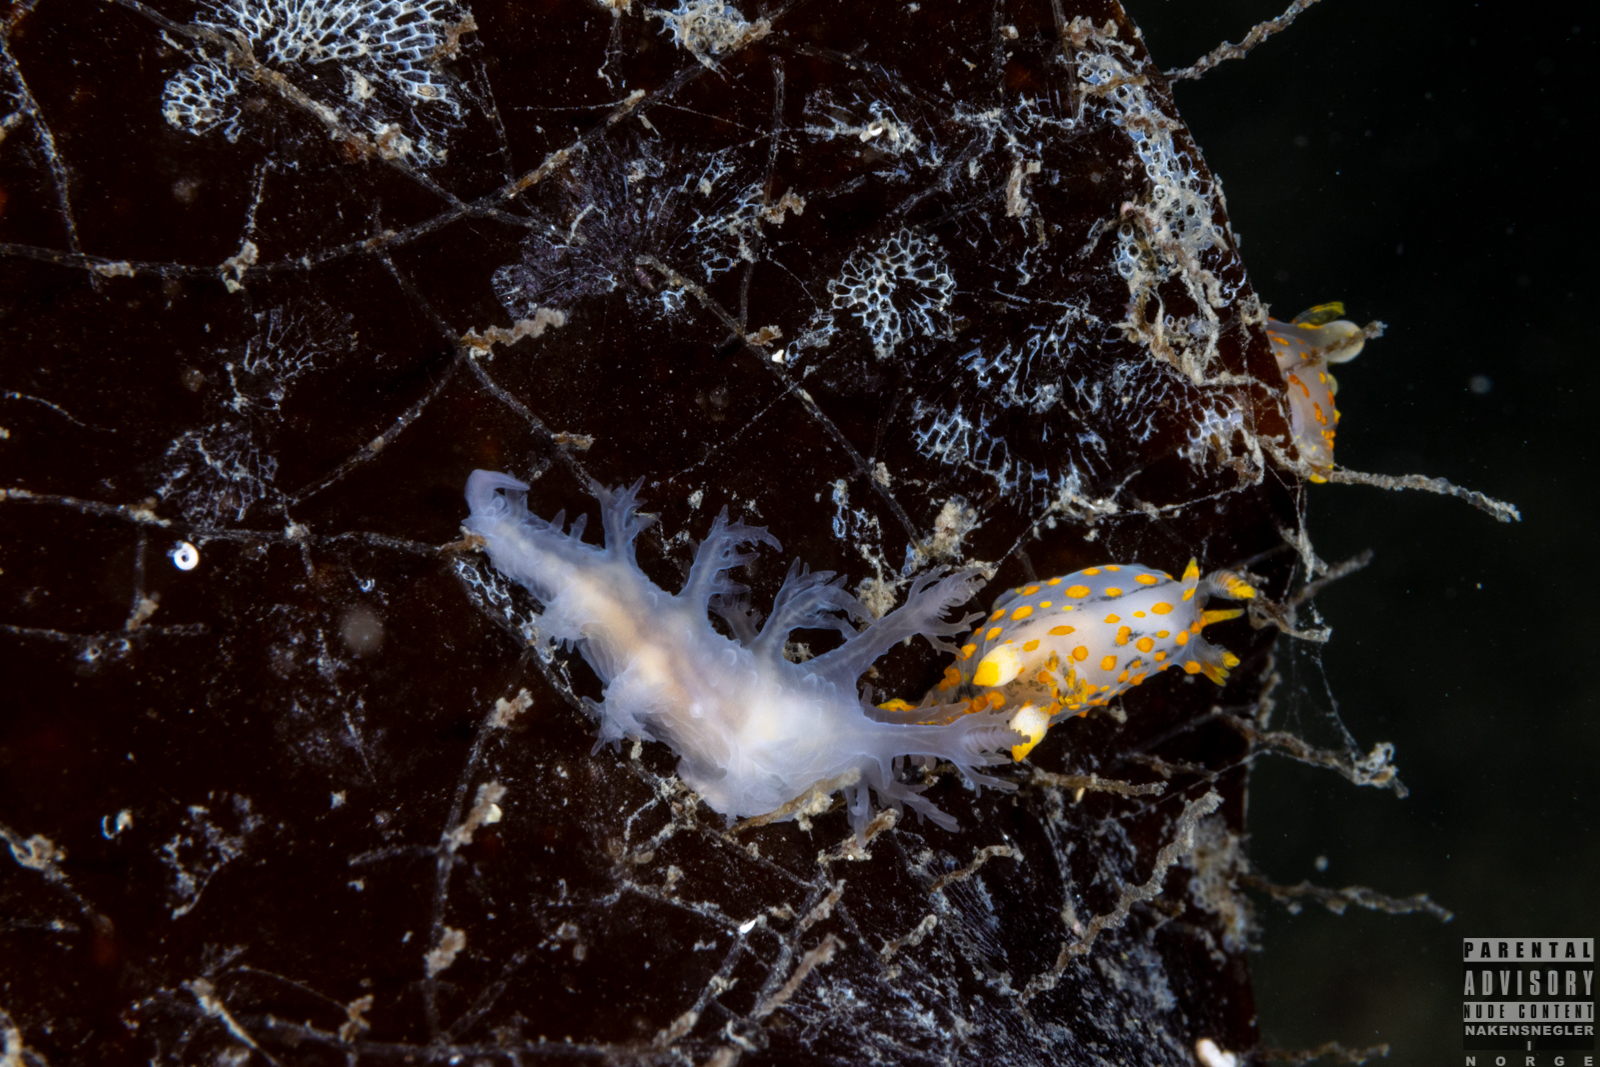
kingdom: Animalia
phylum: Mollusca
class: Gastropoda
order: Nudibranchia
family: Dendronotidae
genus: Dendronotus
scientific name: Dendronotus lacteus
